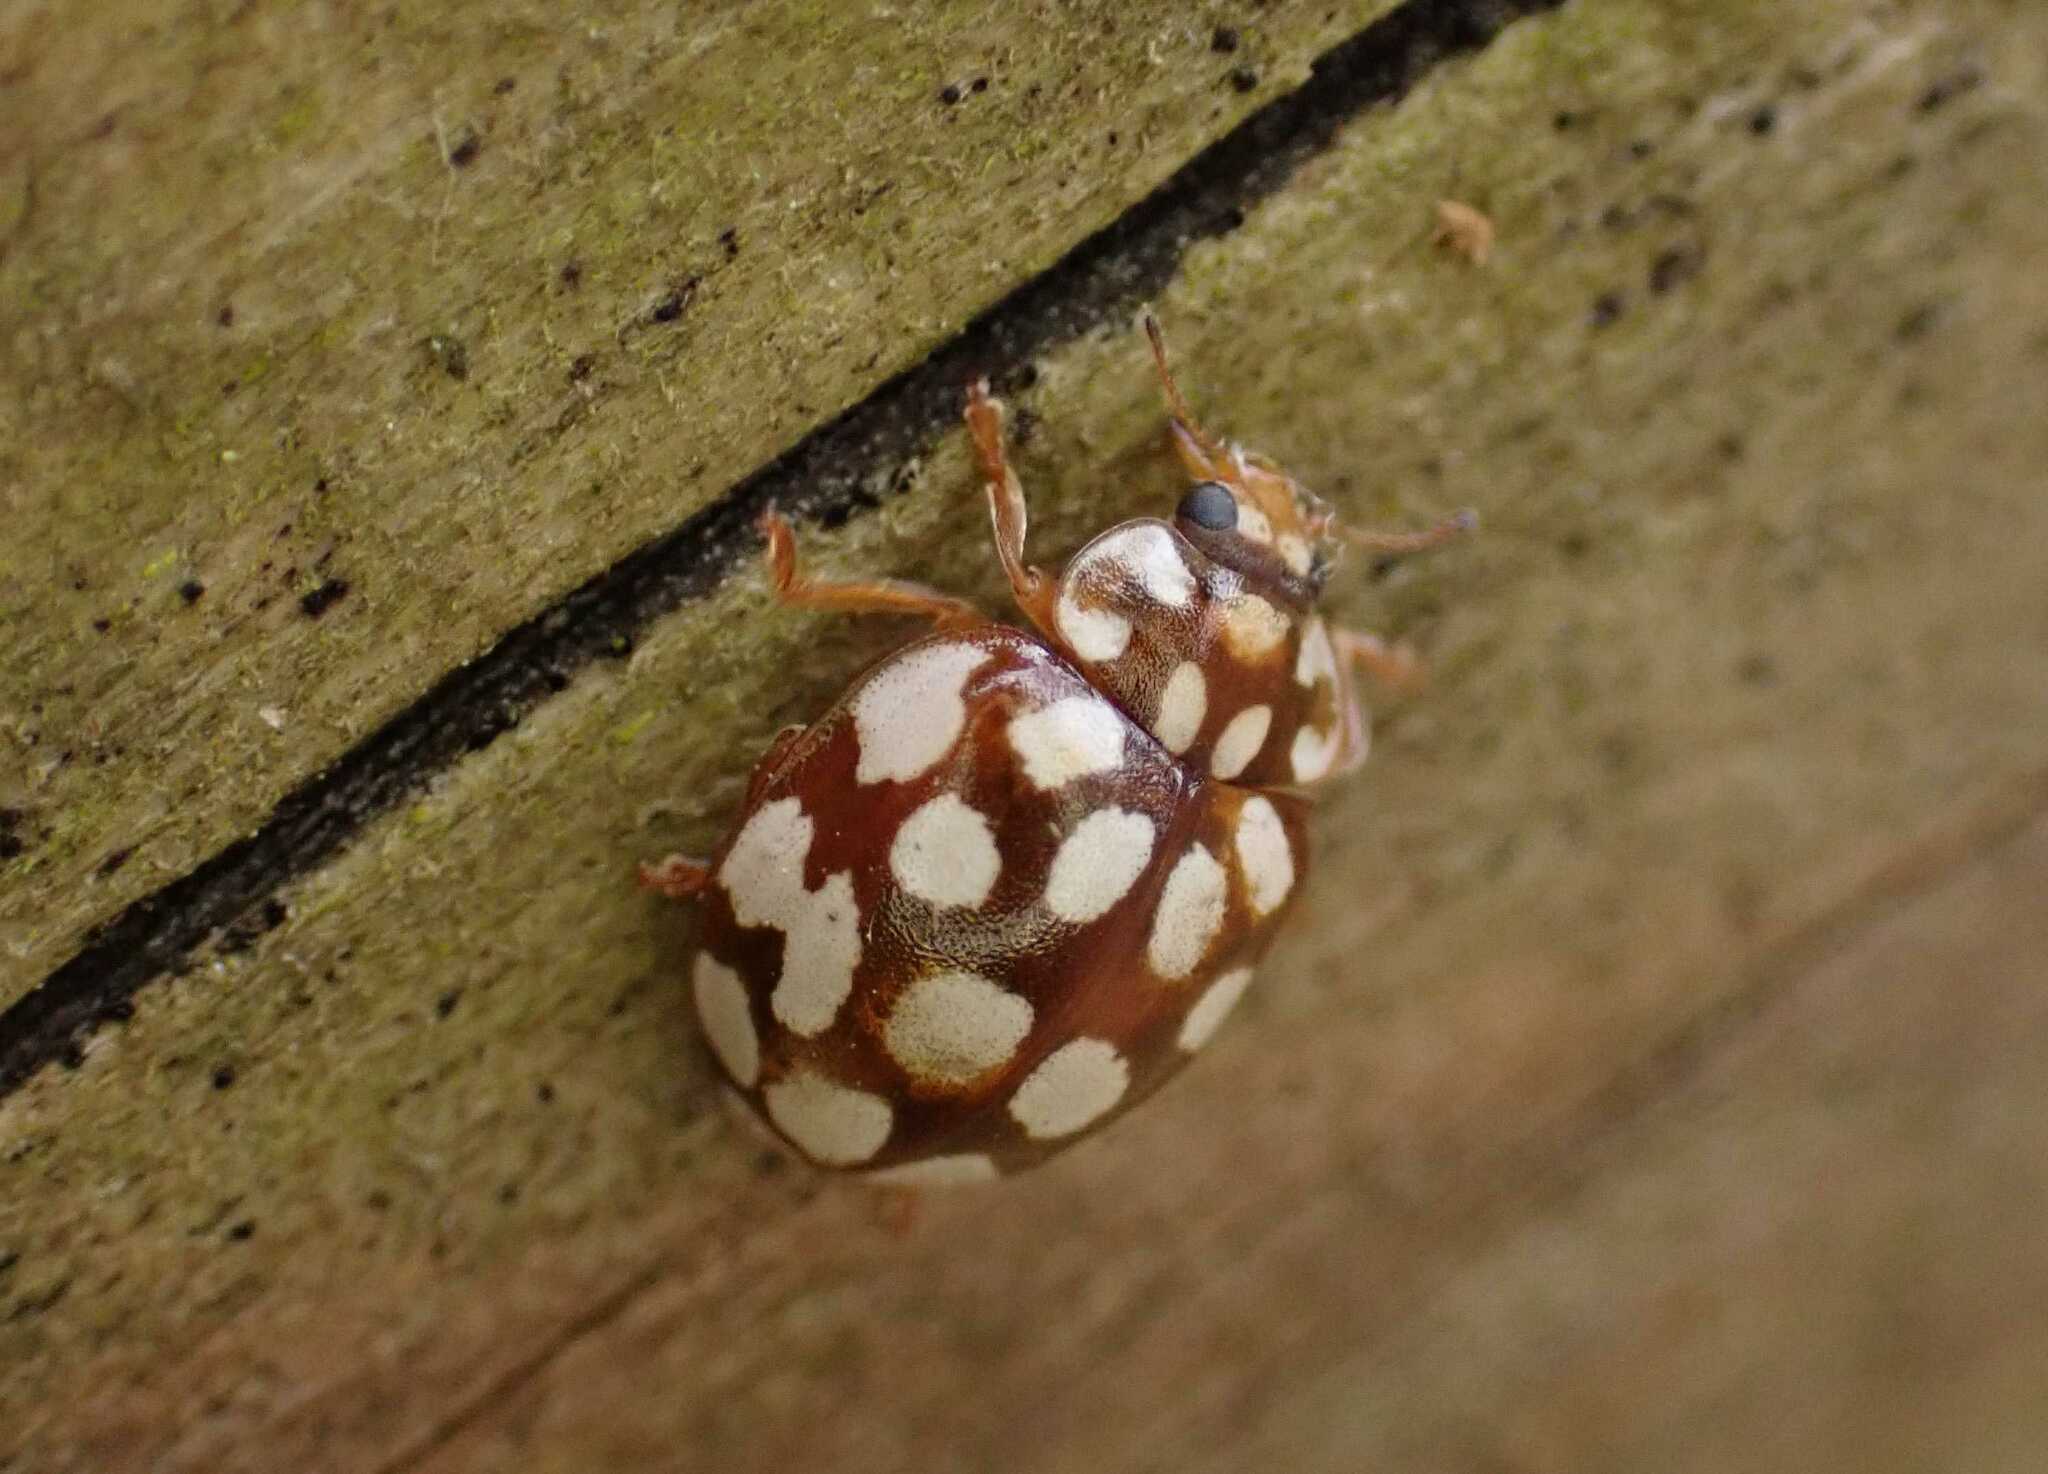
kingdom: Animalia
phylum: Arthropoda
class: Insecta
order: Coleoptera
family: Coccinellidae
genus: Sospita
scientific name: Sospita vigintiguttata
